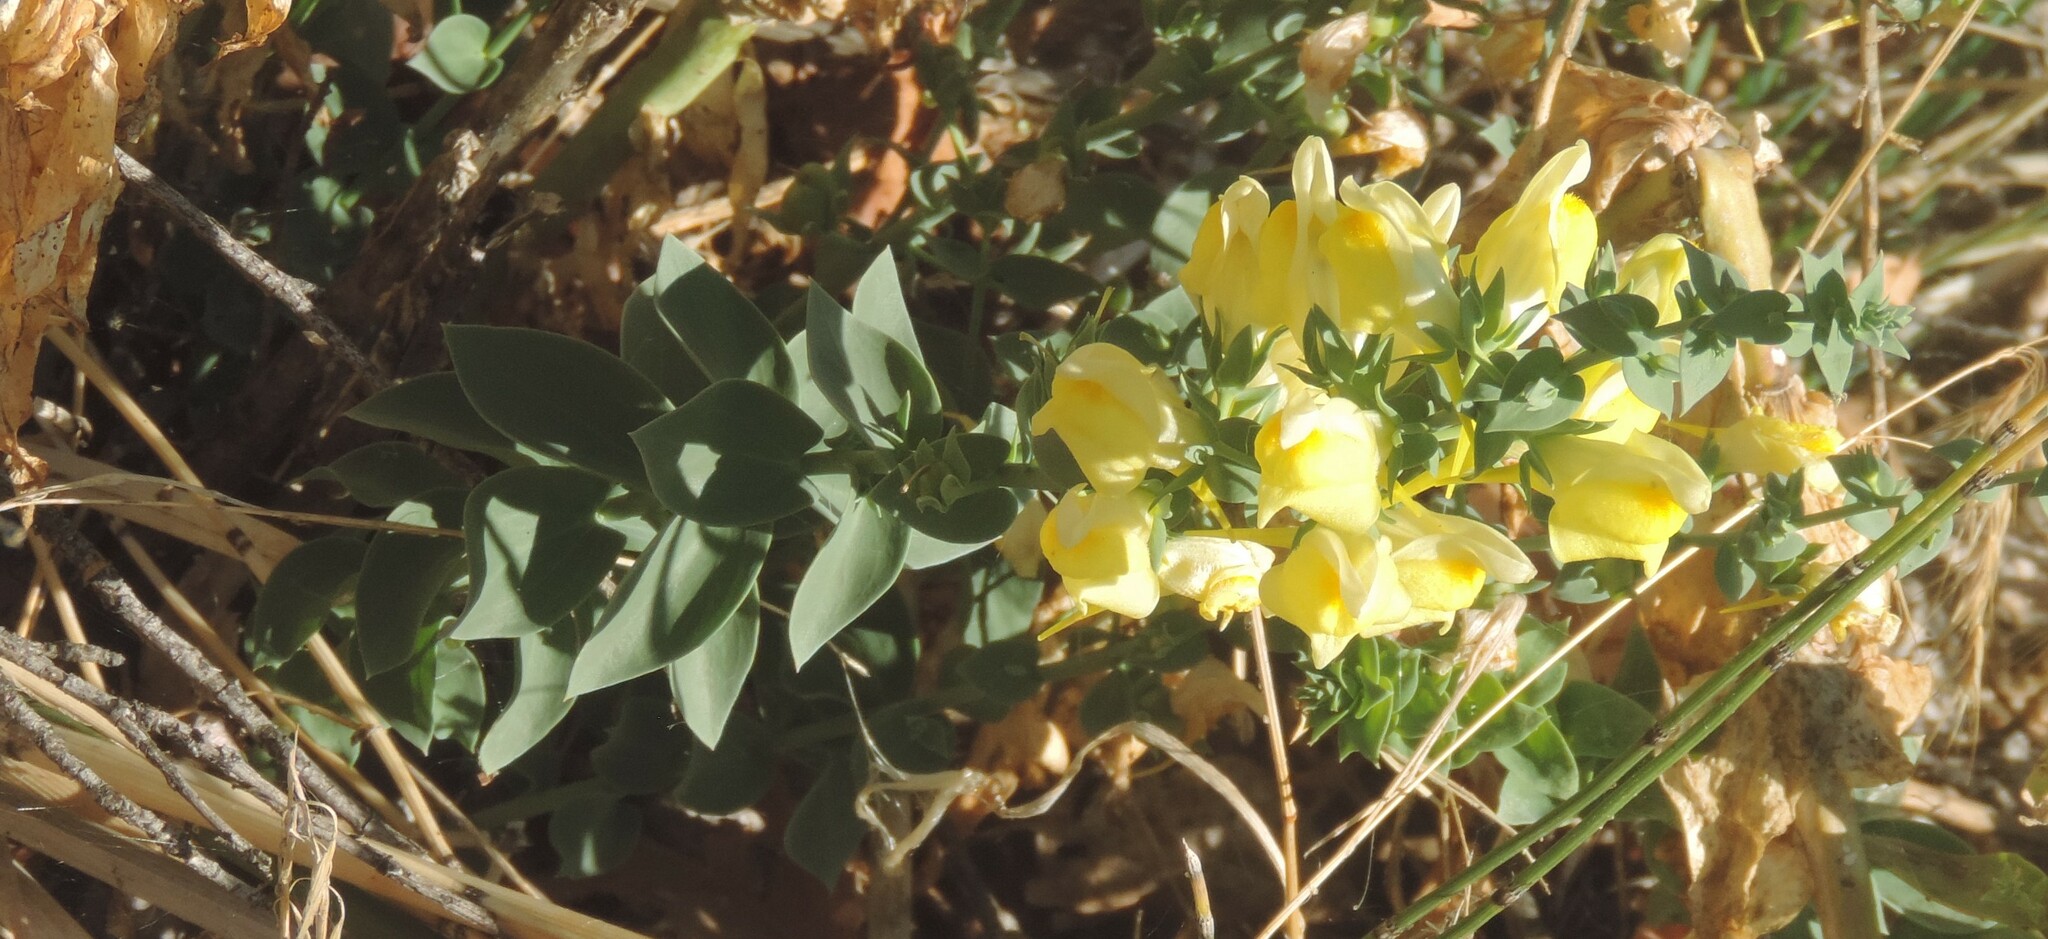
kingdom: Plantae
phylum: Tracheophyta
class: Magnoliopsida
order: Lamiales
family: Plantaginaceae
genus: Linaria
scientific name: Linaria dalmatica
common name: Dalmatian toadflax
